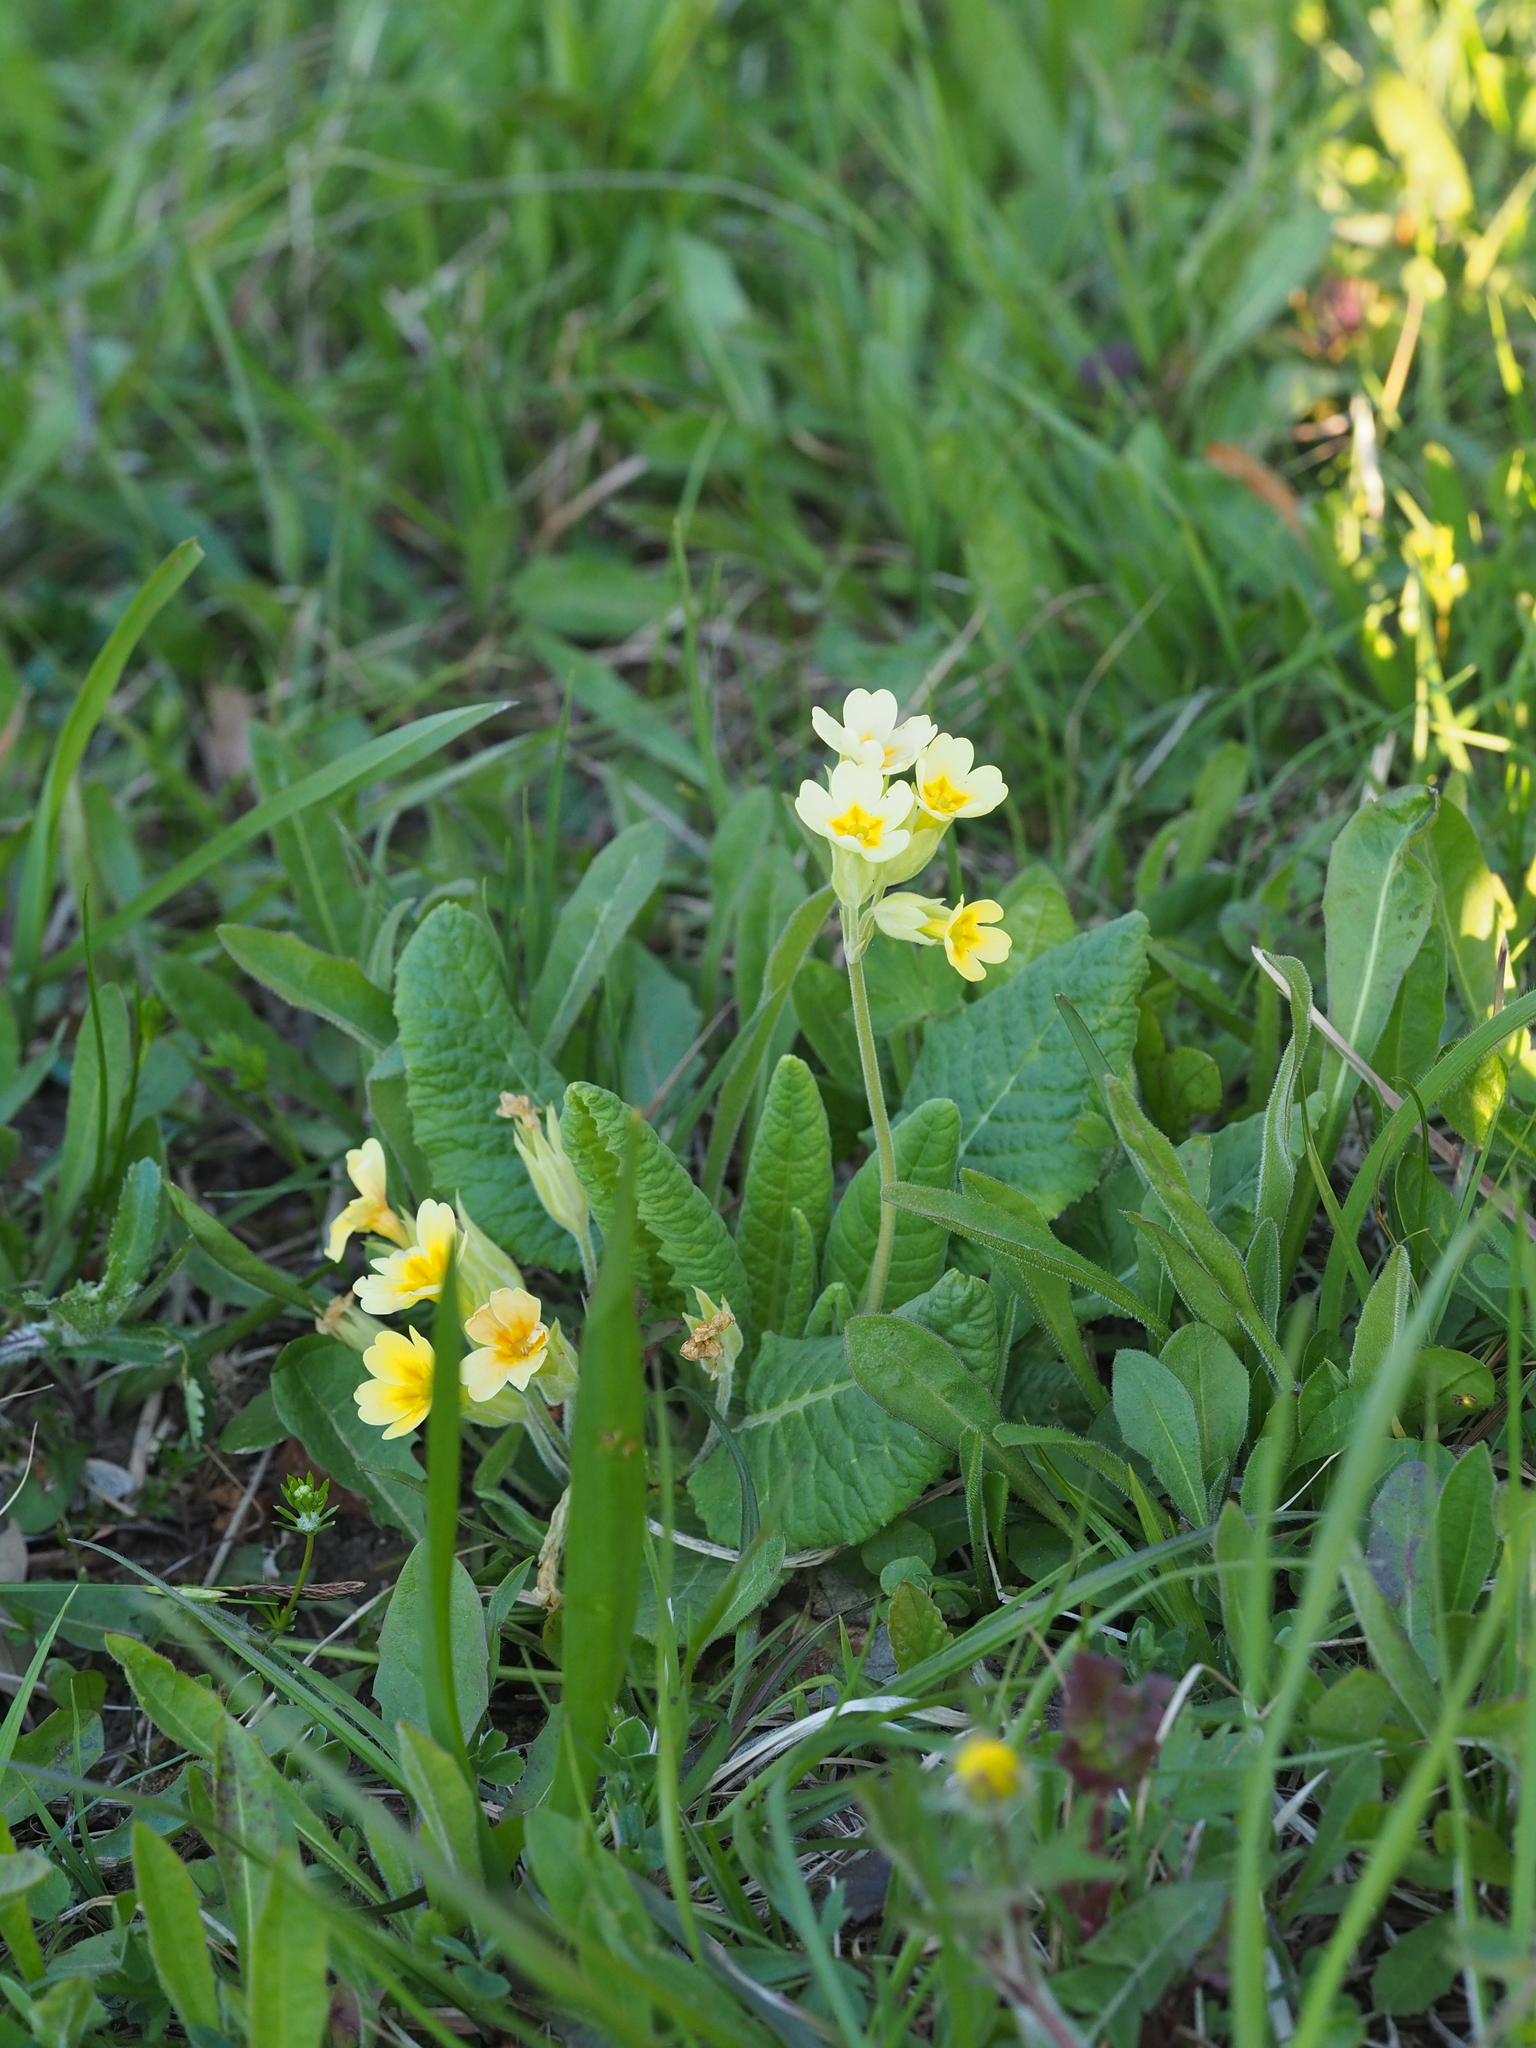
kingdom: Plantae
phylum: Tracheophyta
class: Magnoliopsida
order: Ericales
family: Primulaceae
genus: Primula
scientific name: Primula polyantha
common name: False oxlip
